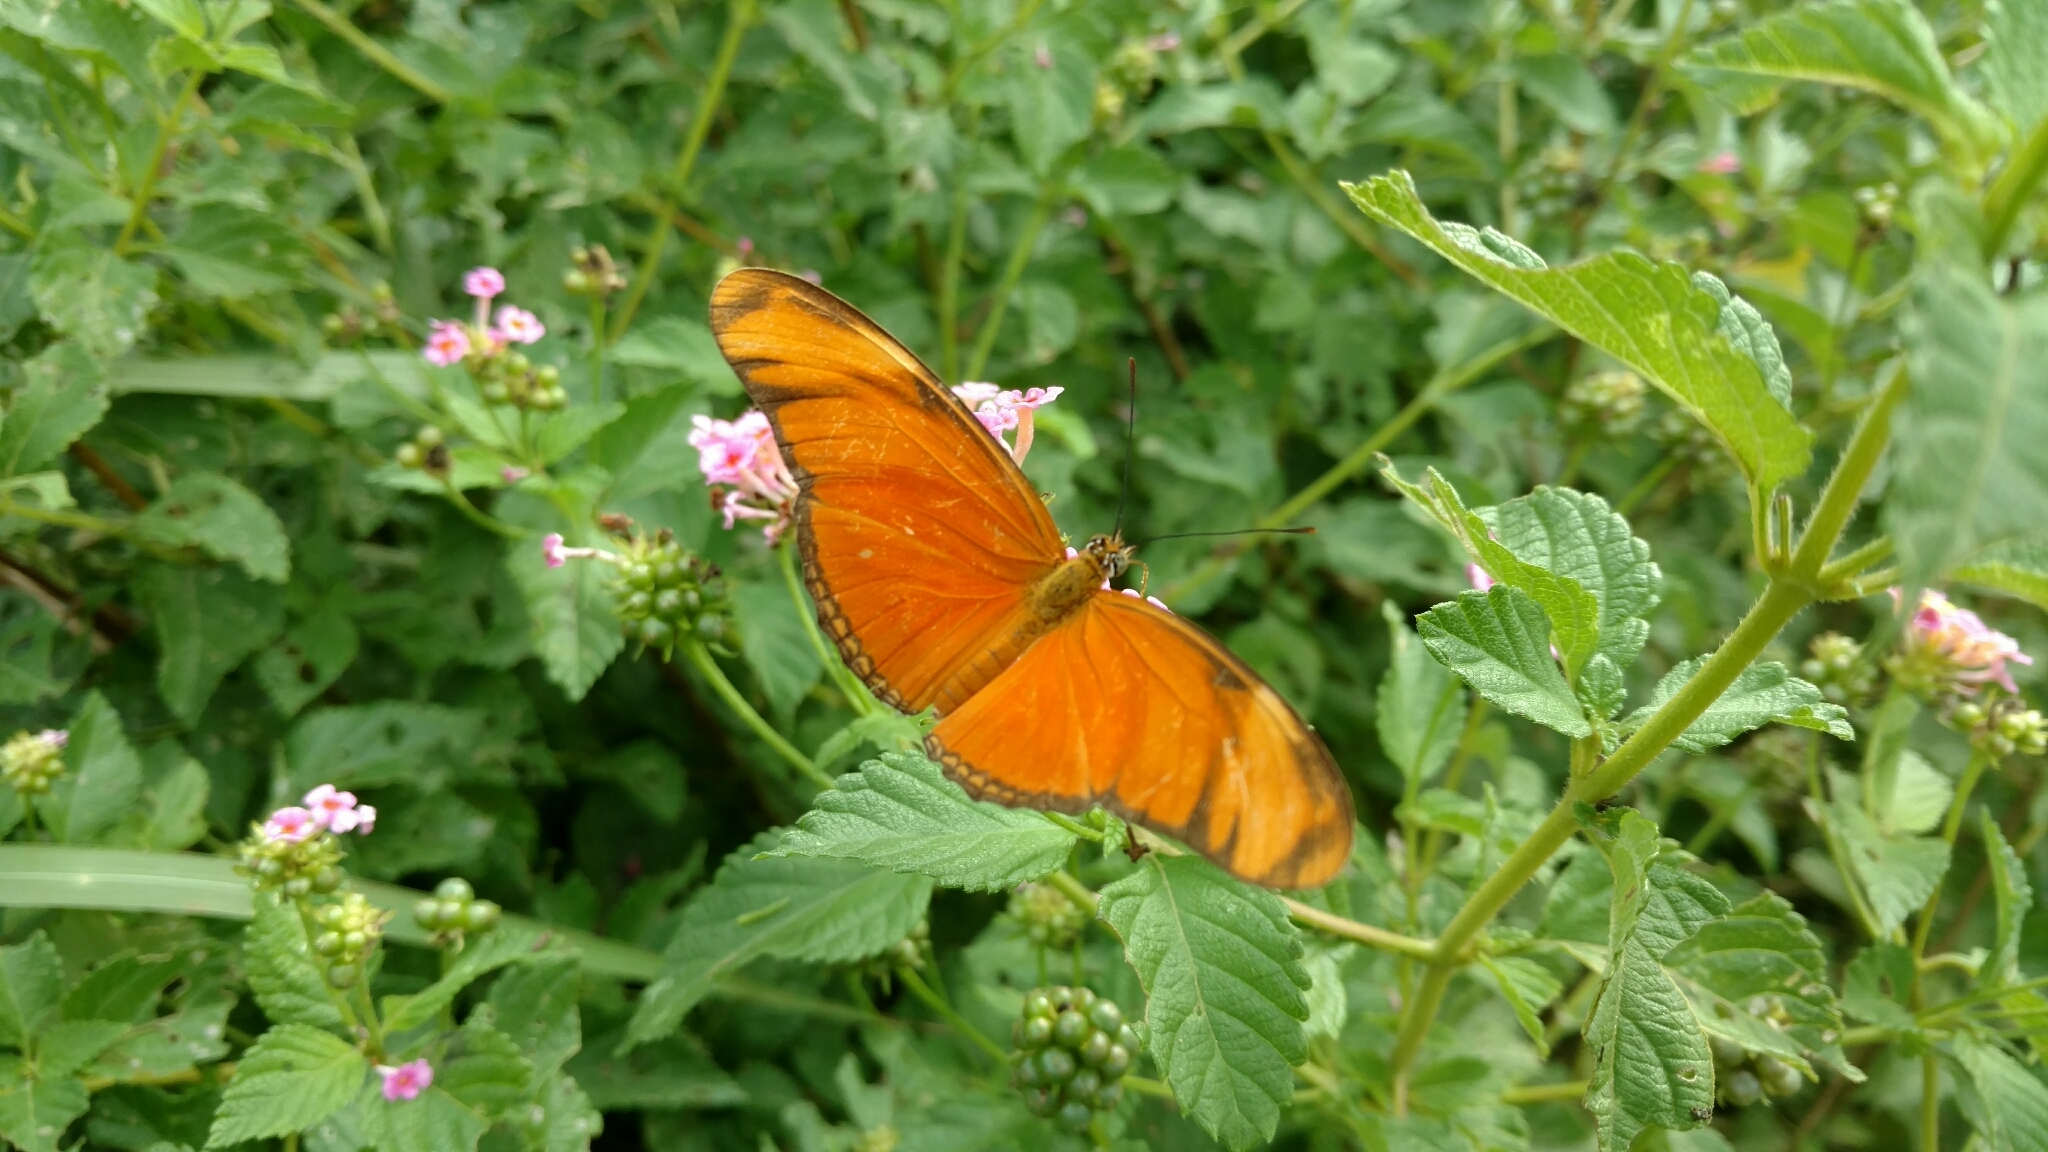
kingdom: Animalia
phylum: Arthropoda
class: Insecta
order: Lepidoptera
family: Nymphalidae
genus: Dryas
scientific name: Dryas iulia
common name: Flambeau
